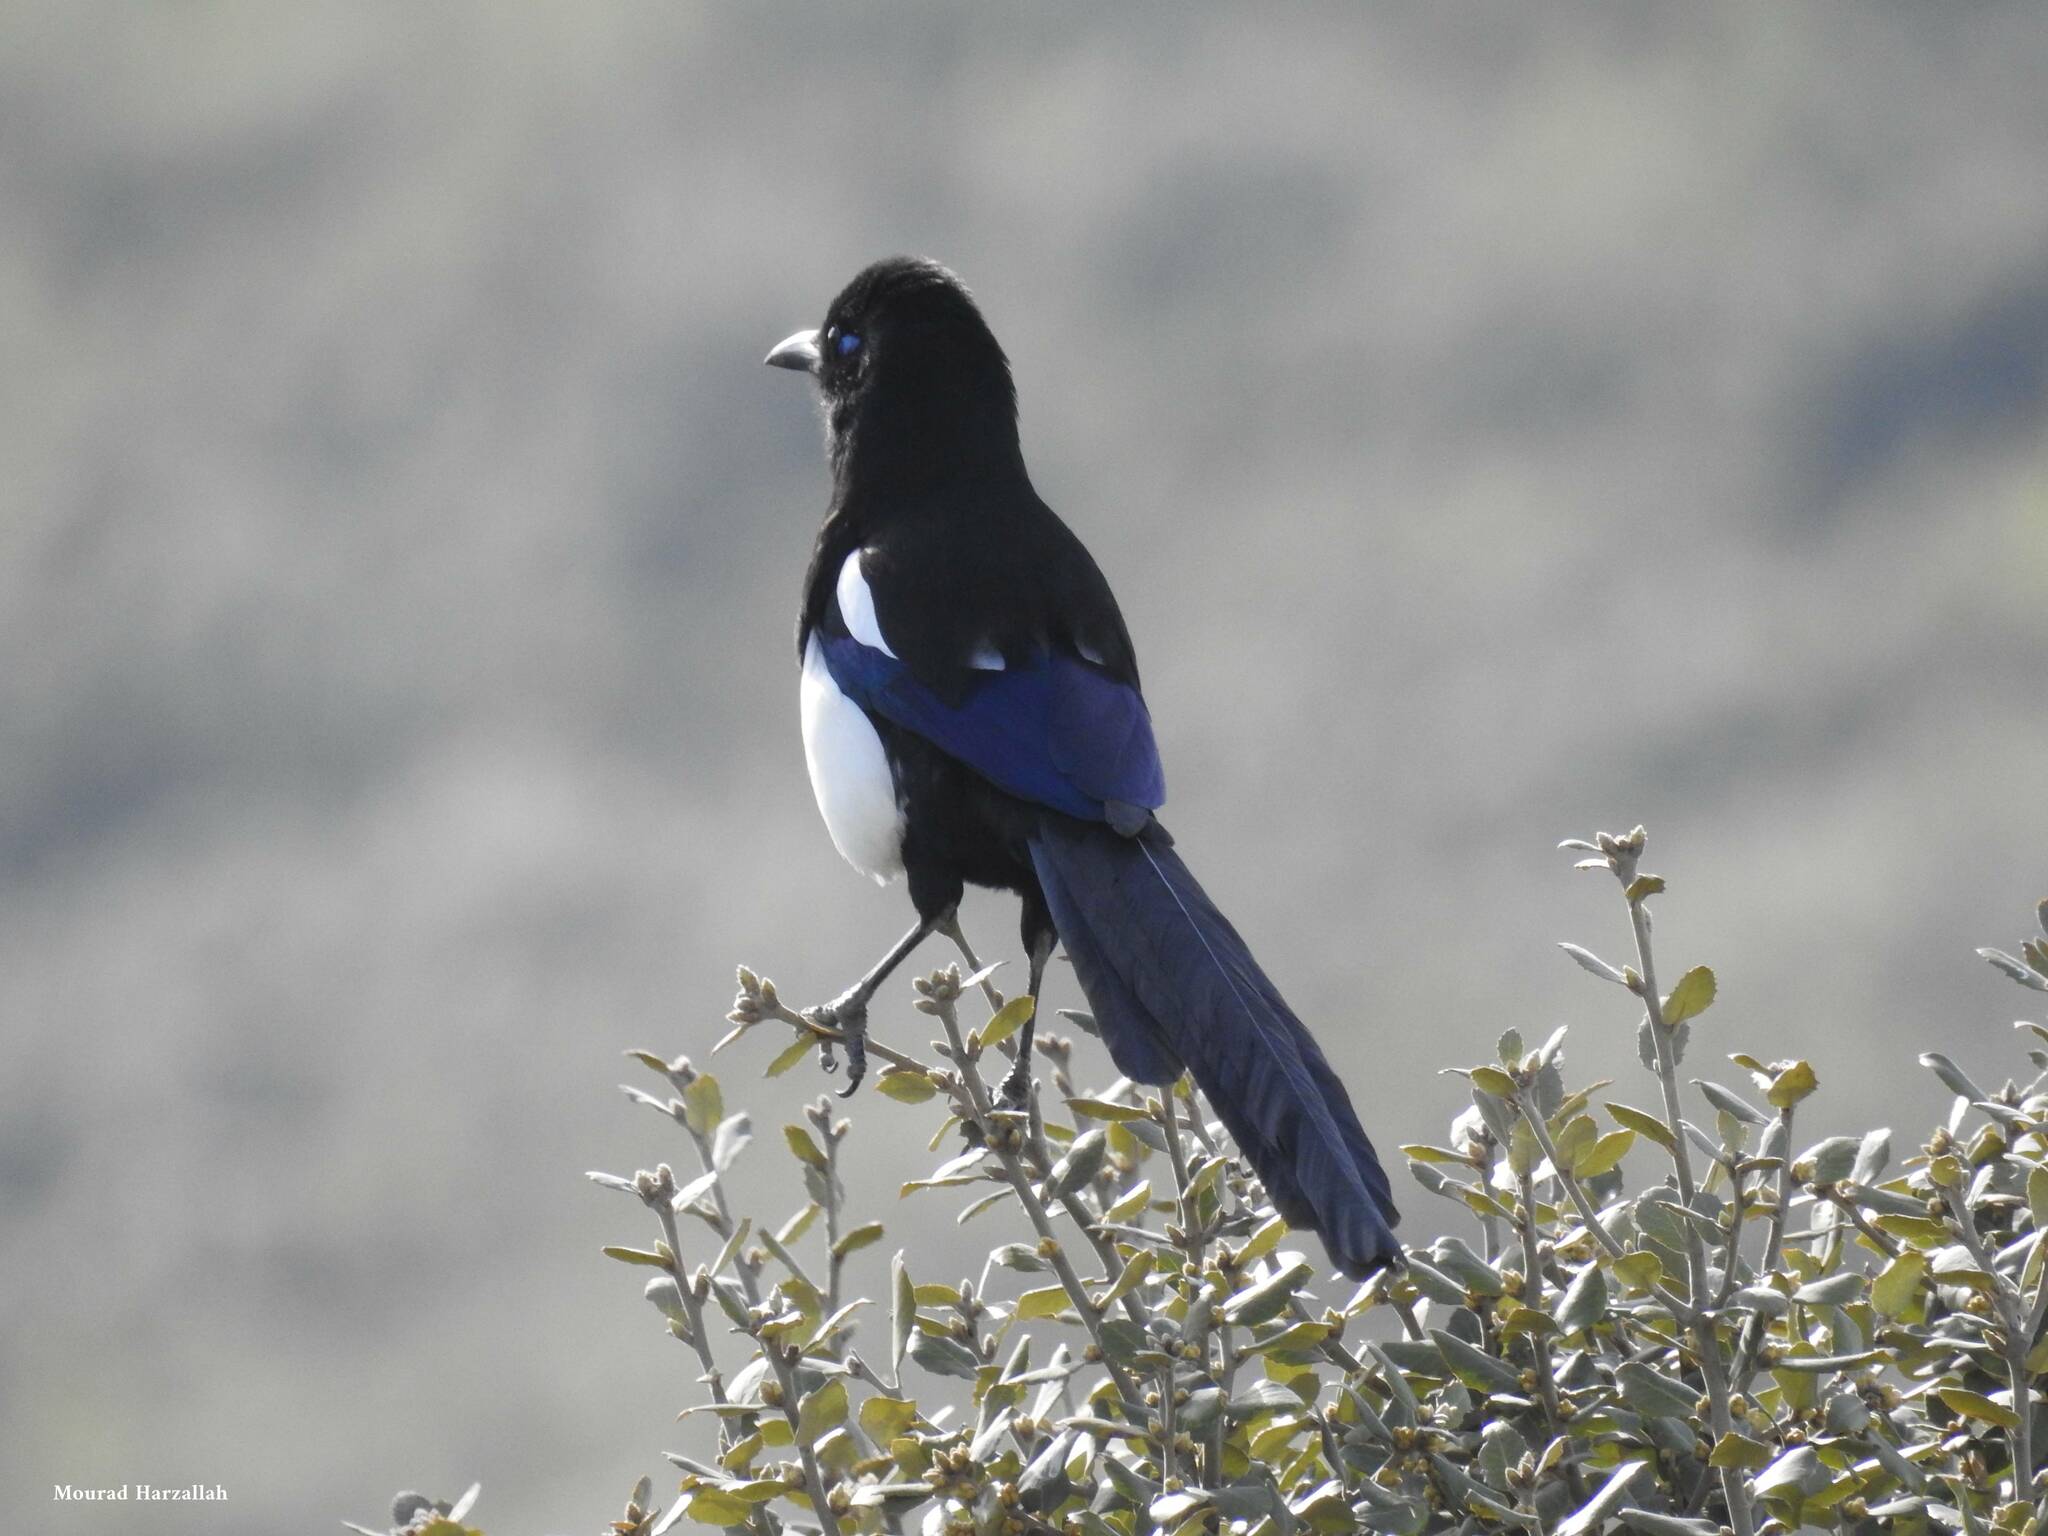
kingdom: Animalia
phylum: Chordata
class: Aves
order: Passeriformes
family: Corvidae
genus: Pica
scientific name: Pica mauritanica
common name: Maghreb magpie
